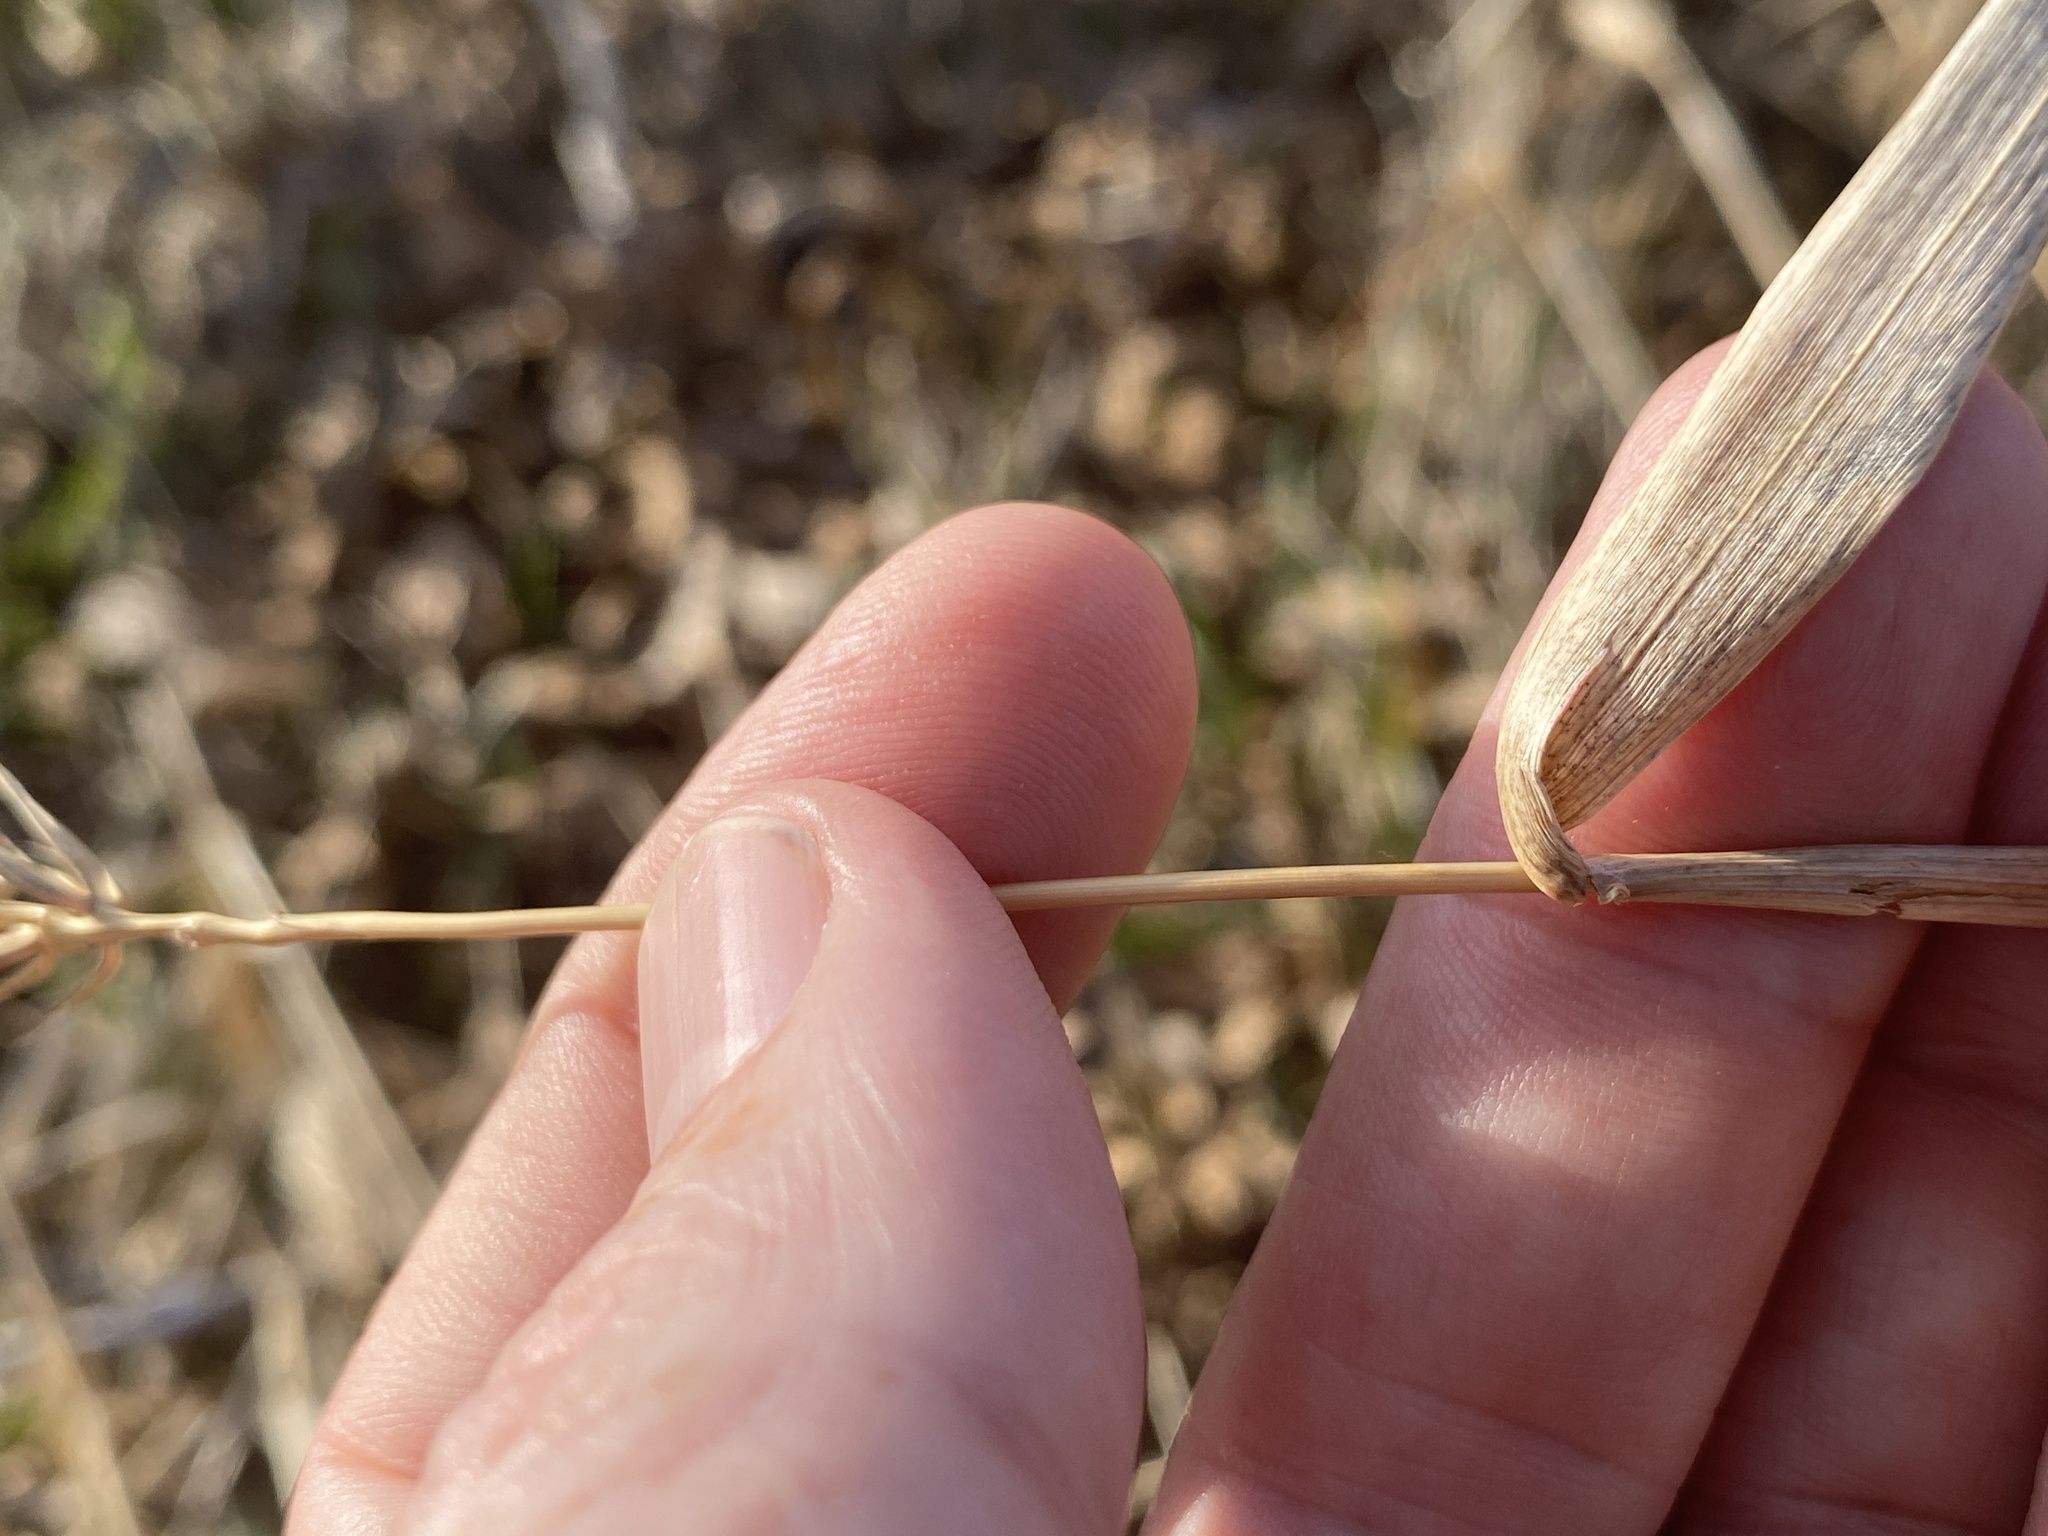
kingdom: Plantae
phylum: Tracheophyta
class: Liliopsida
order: Poales
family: Poaceae
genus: Elymus
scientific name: Elymus virginicus
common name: Common eastern wildrye
